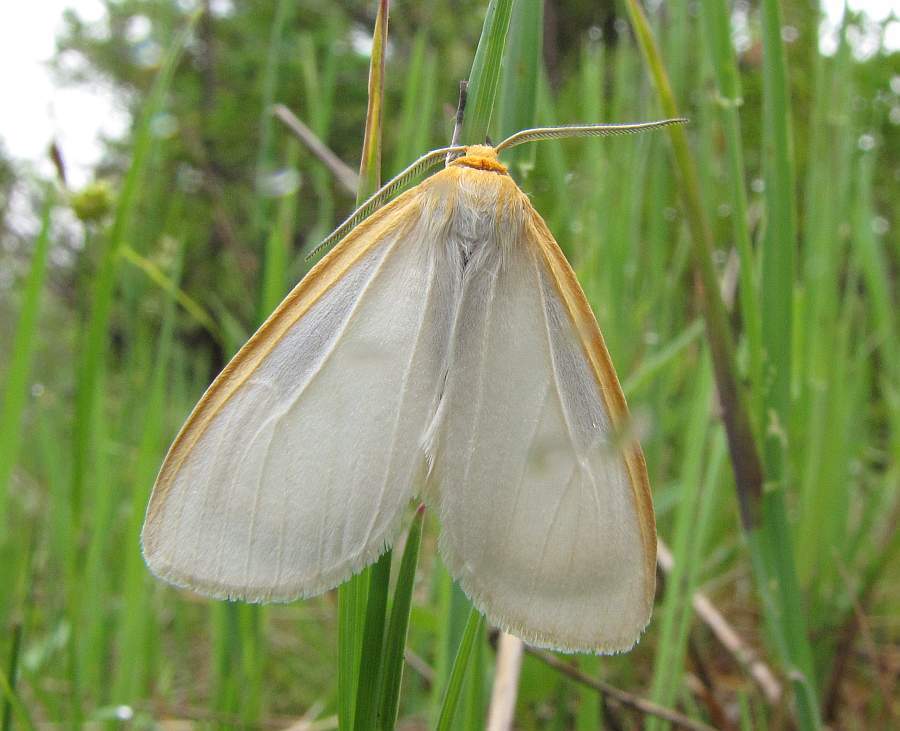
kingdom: Animalia
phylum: Arthropoda
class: Insecta
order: Lepidoptera
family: Erebidae
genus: Cycnia
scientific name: Cycnia tenera
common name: Delicate cycnia moth
